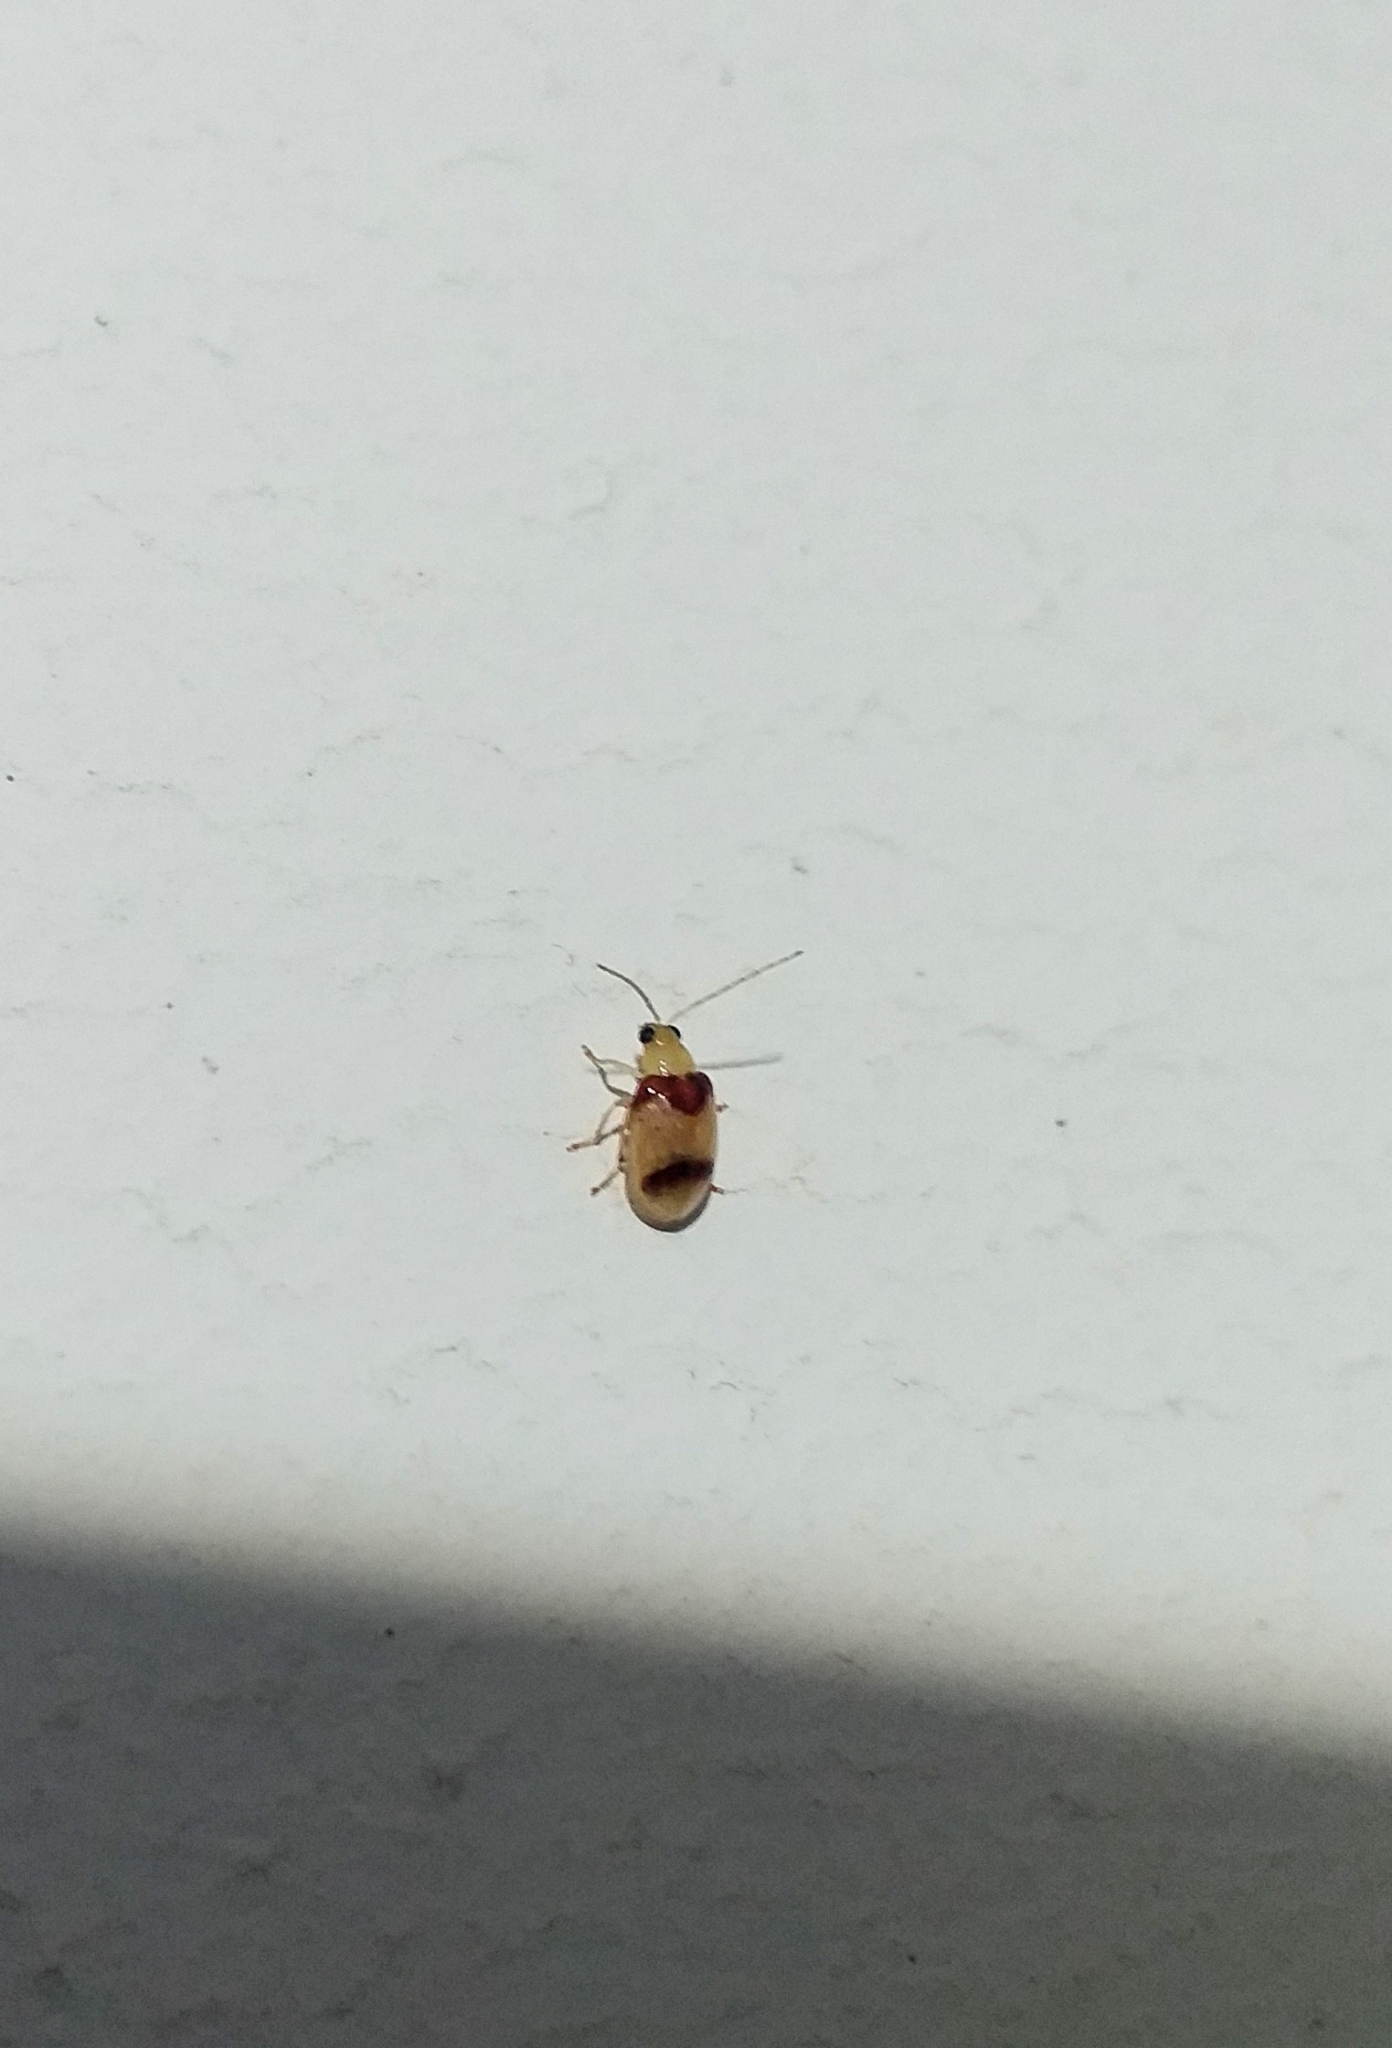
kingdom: Animalia
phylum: Arthropoda
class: Insecta
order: Coleoptera
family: Chrysomelidae
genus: Monolepta
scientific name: Monolepta
